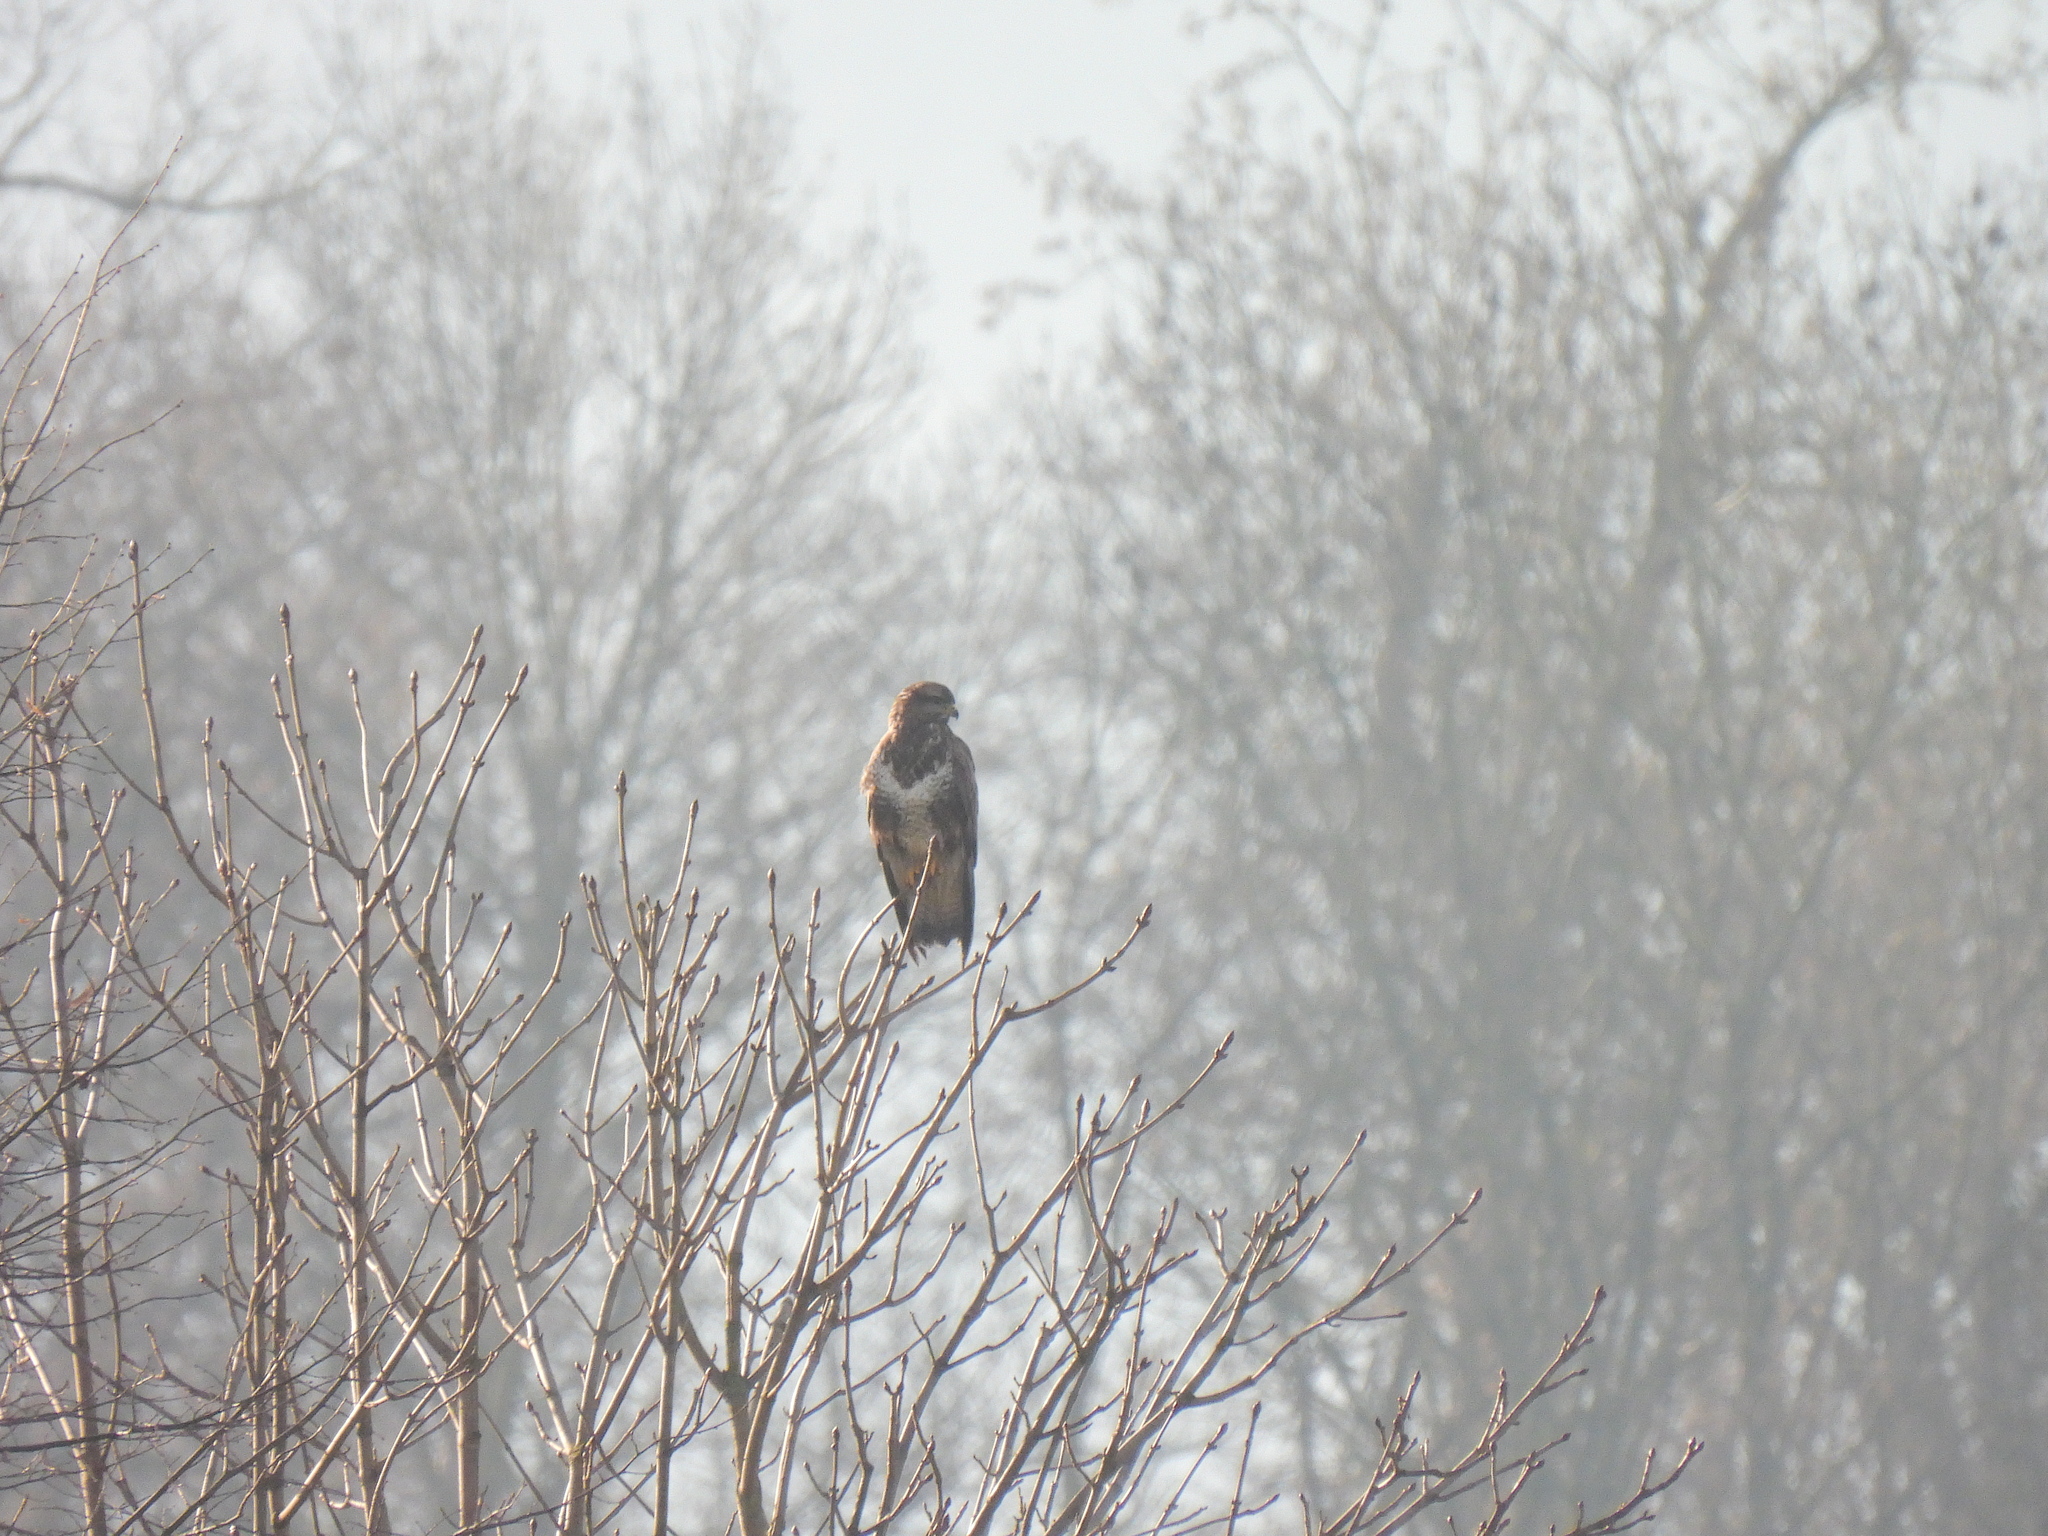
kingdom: Animalia
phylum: Chordata
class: Aves
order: Accipitriformes
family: Accipitridae
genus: Buteo
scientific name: Buteo buteo
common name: Common buzzard
